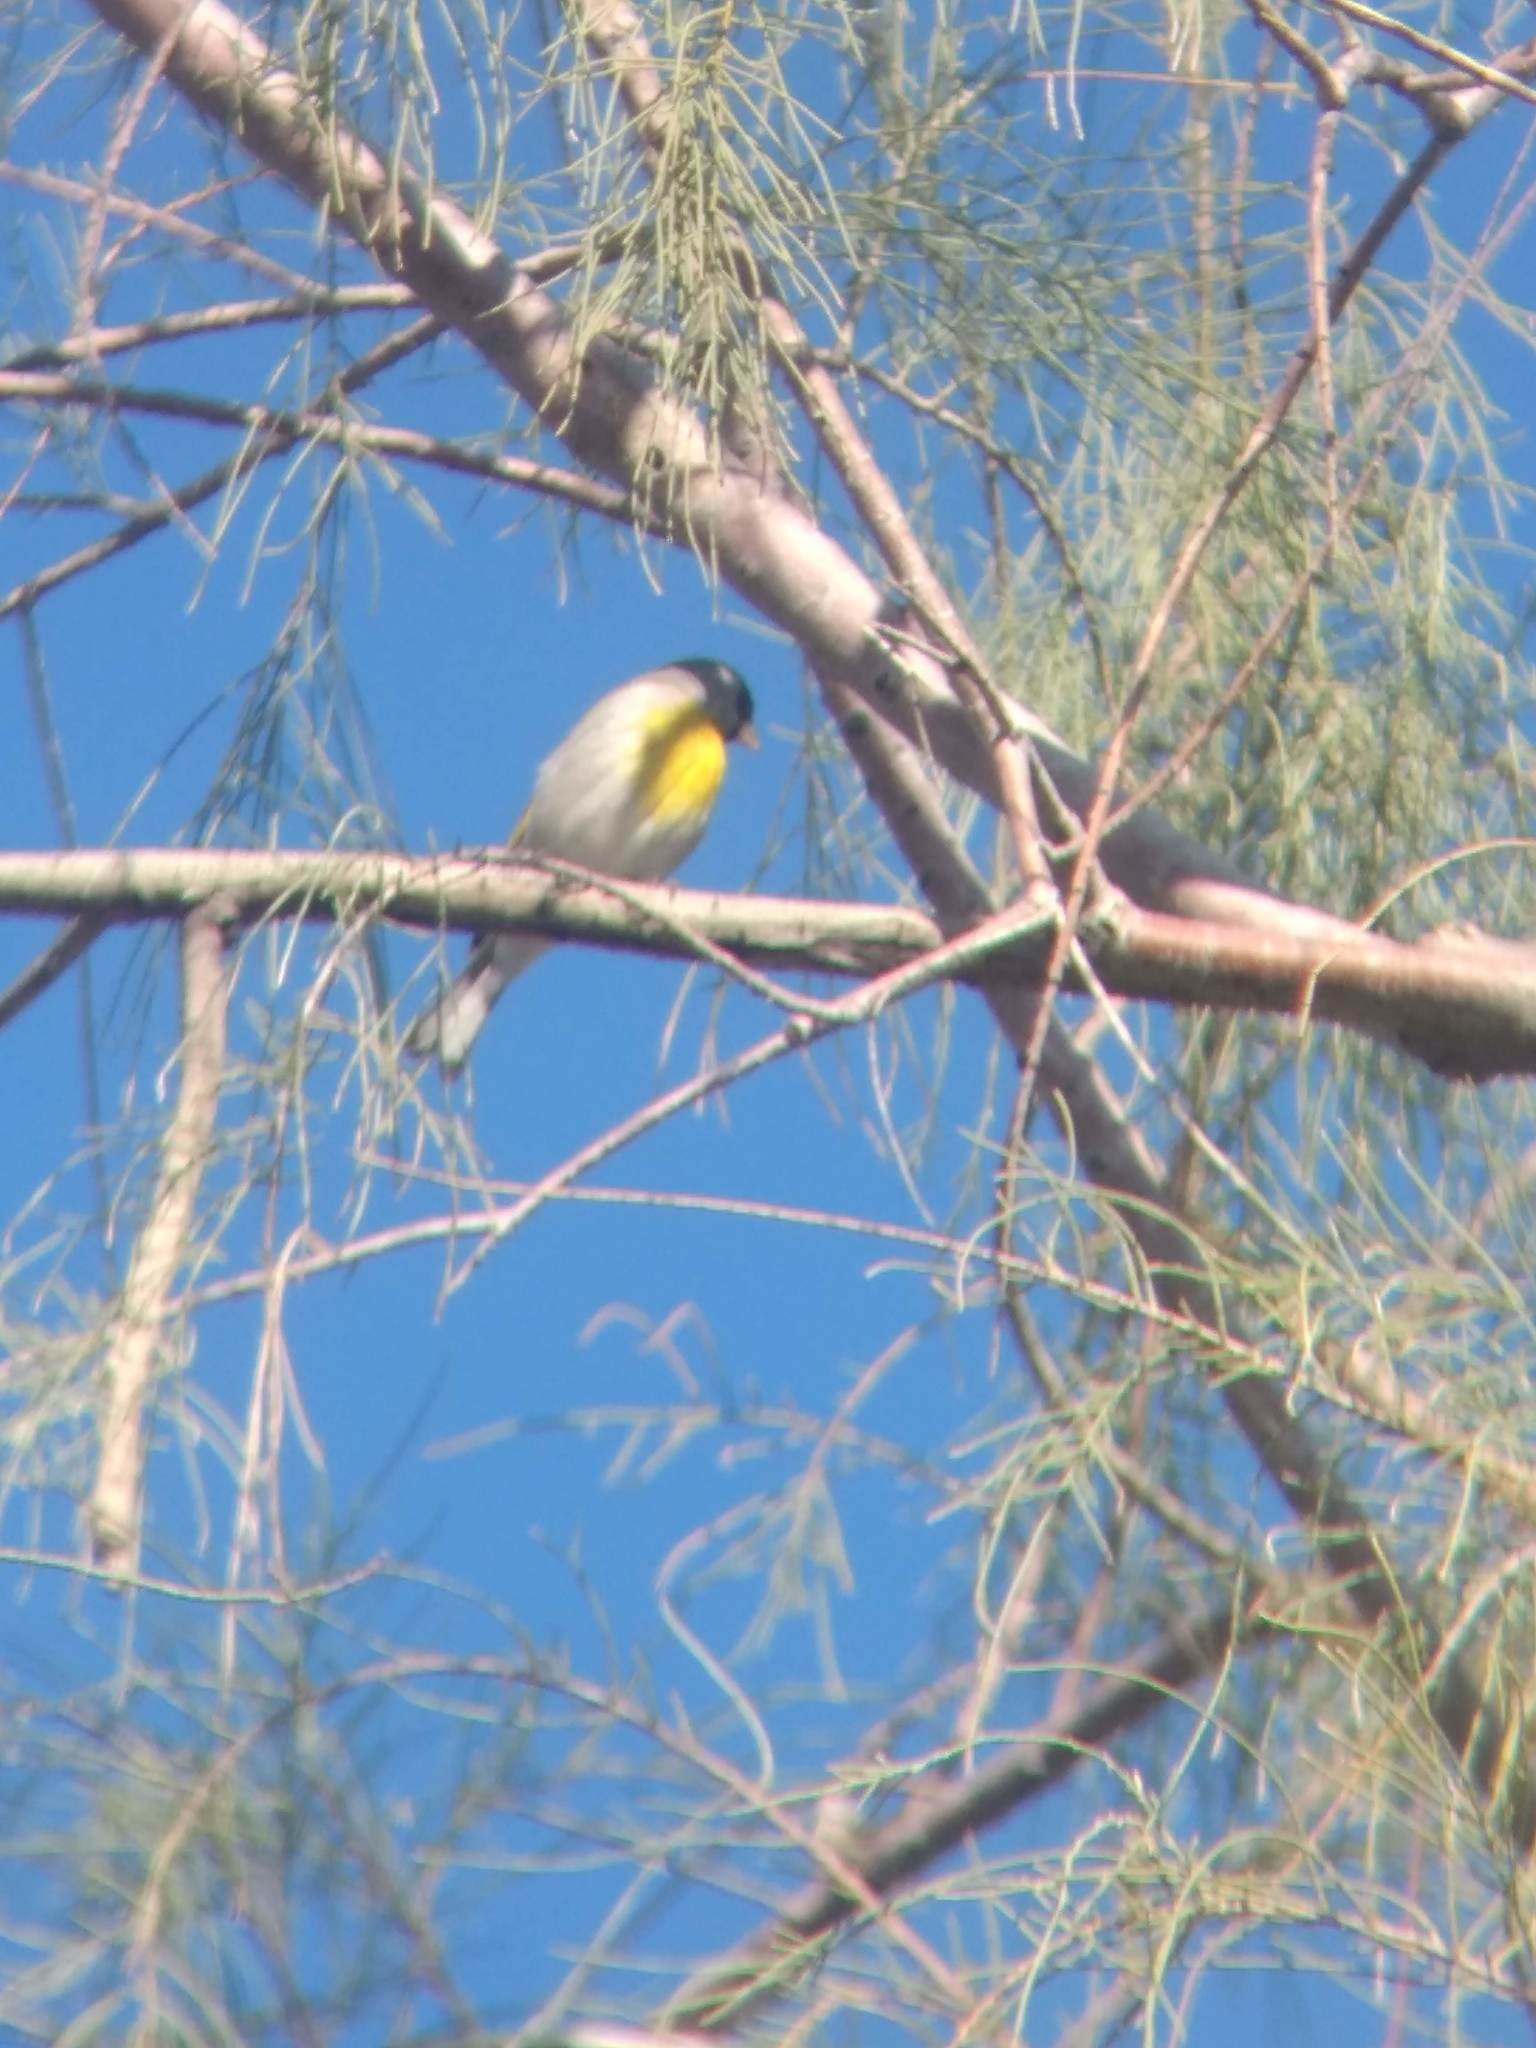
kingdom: Animalia
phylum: Chordata
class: Aves
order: Passeriformes
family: Fringillidae
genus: Spinus
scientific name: Spinus lawrencei
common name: Lawrence's goldfinch
